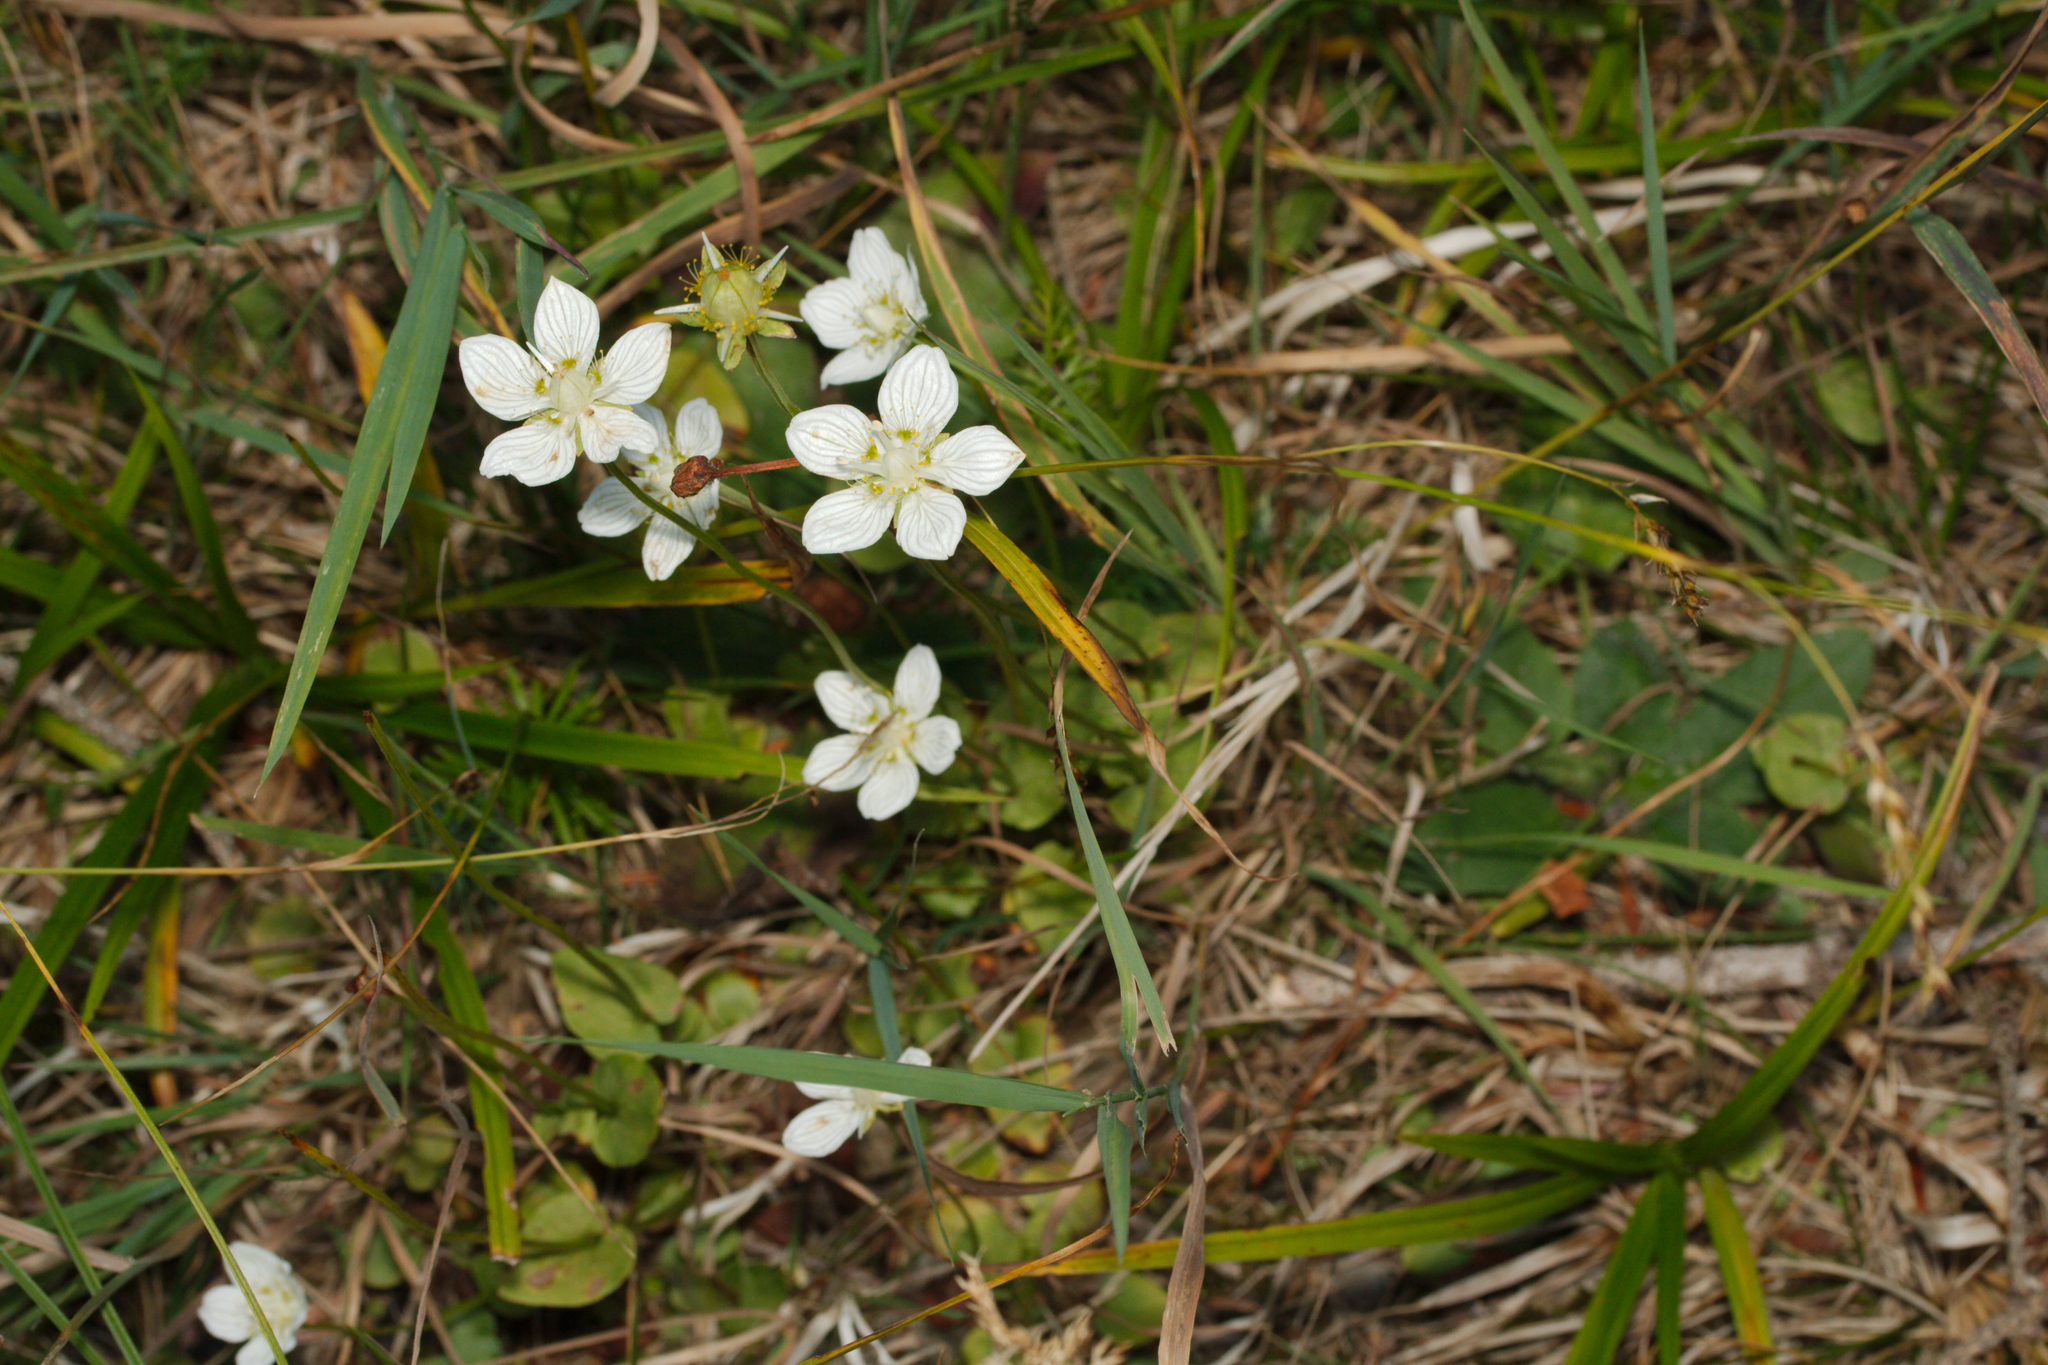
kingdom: Plantae
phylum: Tracheophyta
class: Magnoliopsida
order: Celastrales
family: Parnassiaceae
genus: Parnassia
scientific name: Parnassia palustris
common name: Grass-of-parnassus
